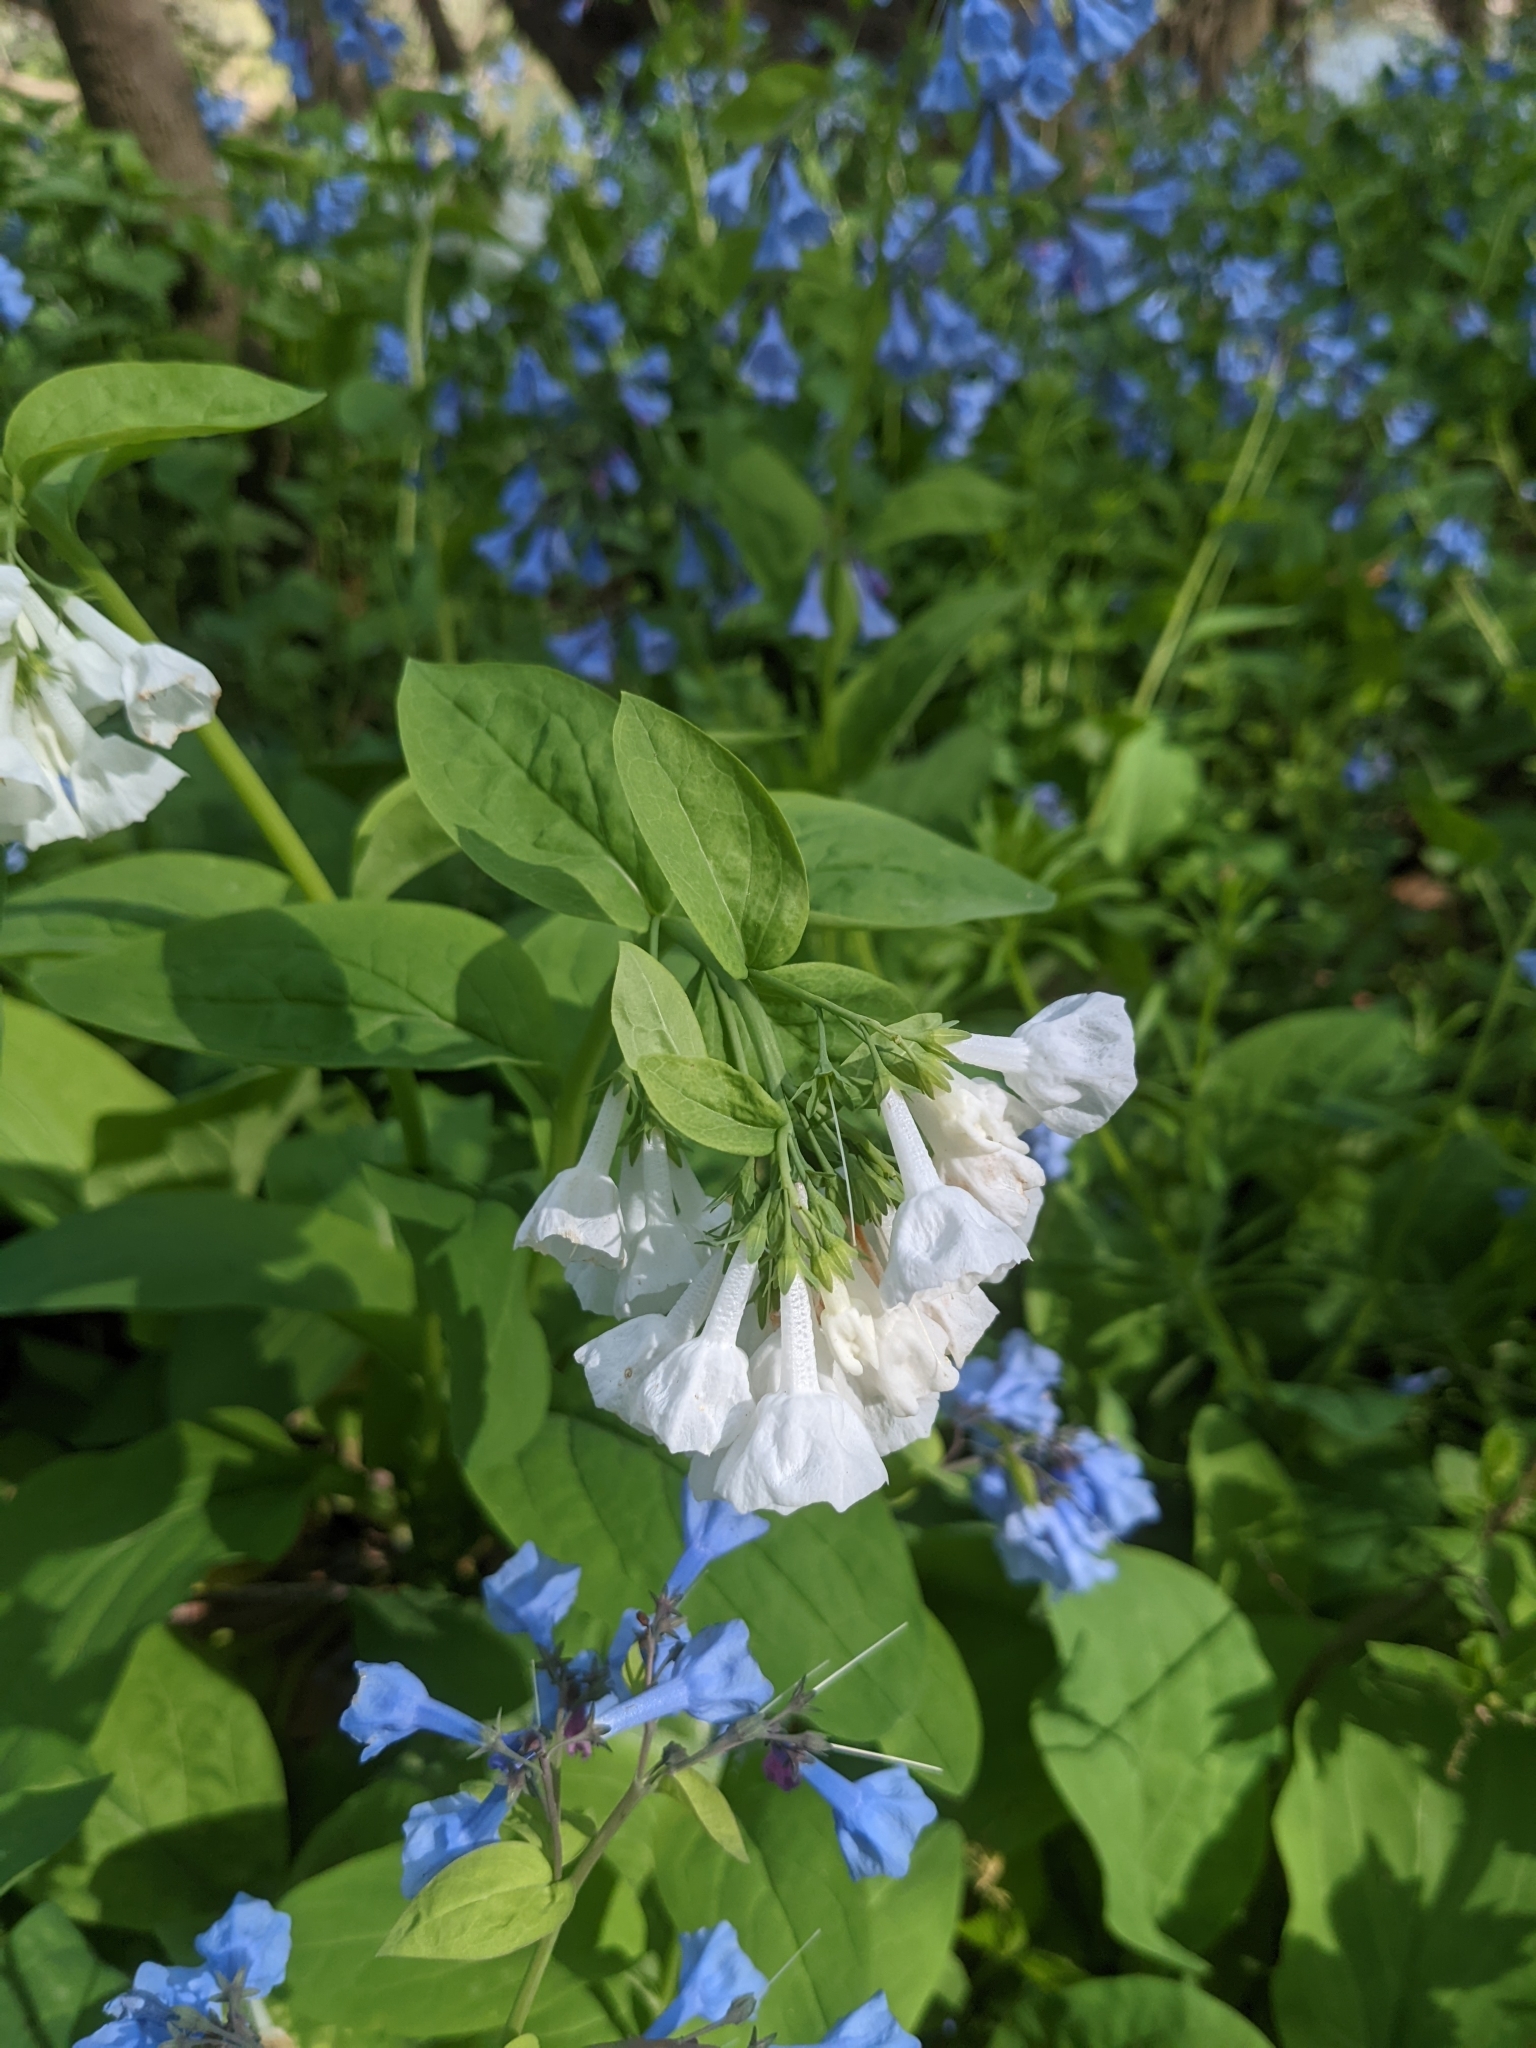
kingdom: Plantae
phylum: Tracheophyta
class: Magnoliopsida
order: Boraginales
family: Boraginaceae
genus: Mertensia
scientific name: Mertensia virginica
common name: Virginia bluebells
